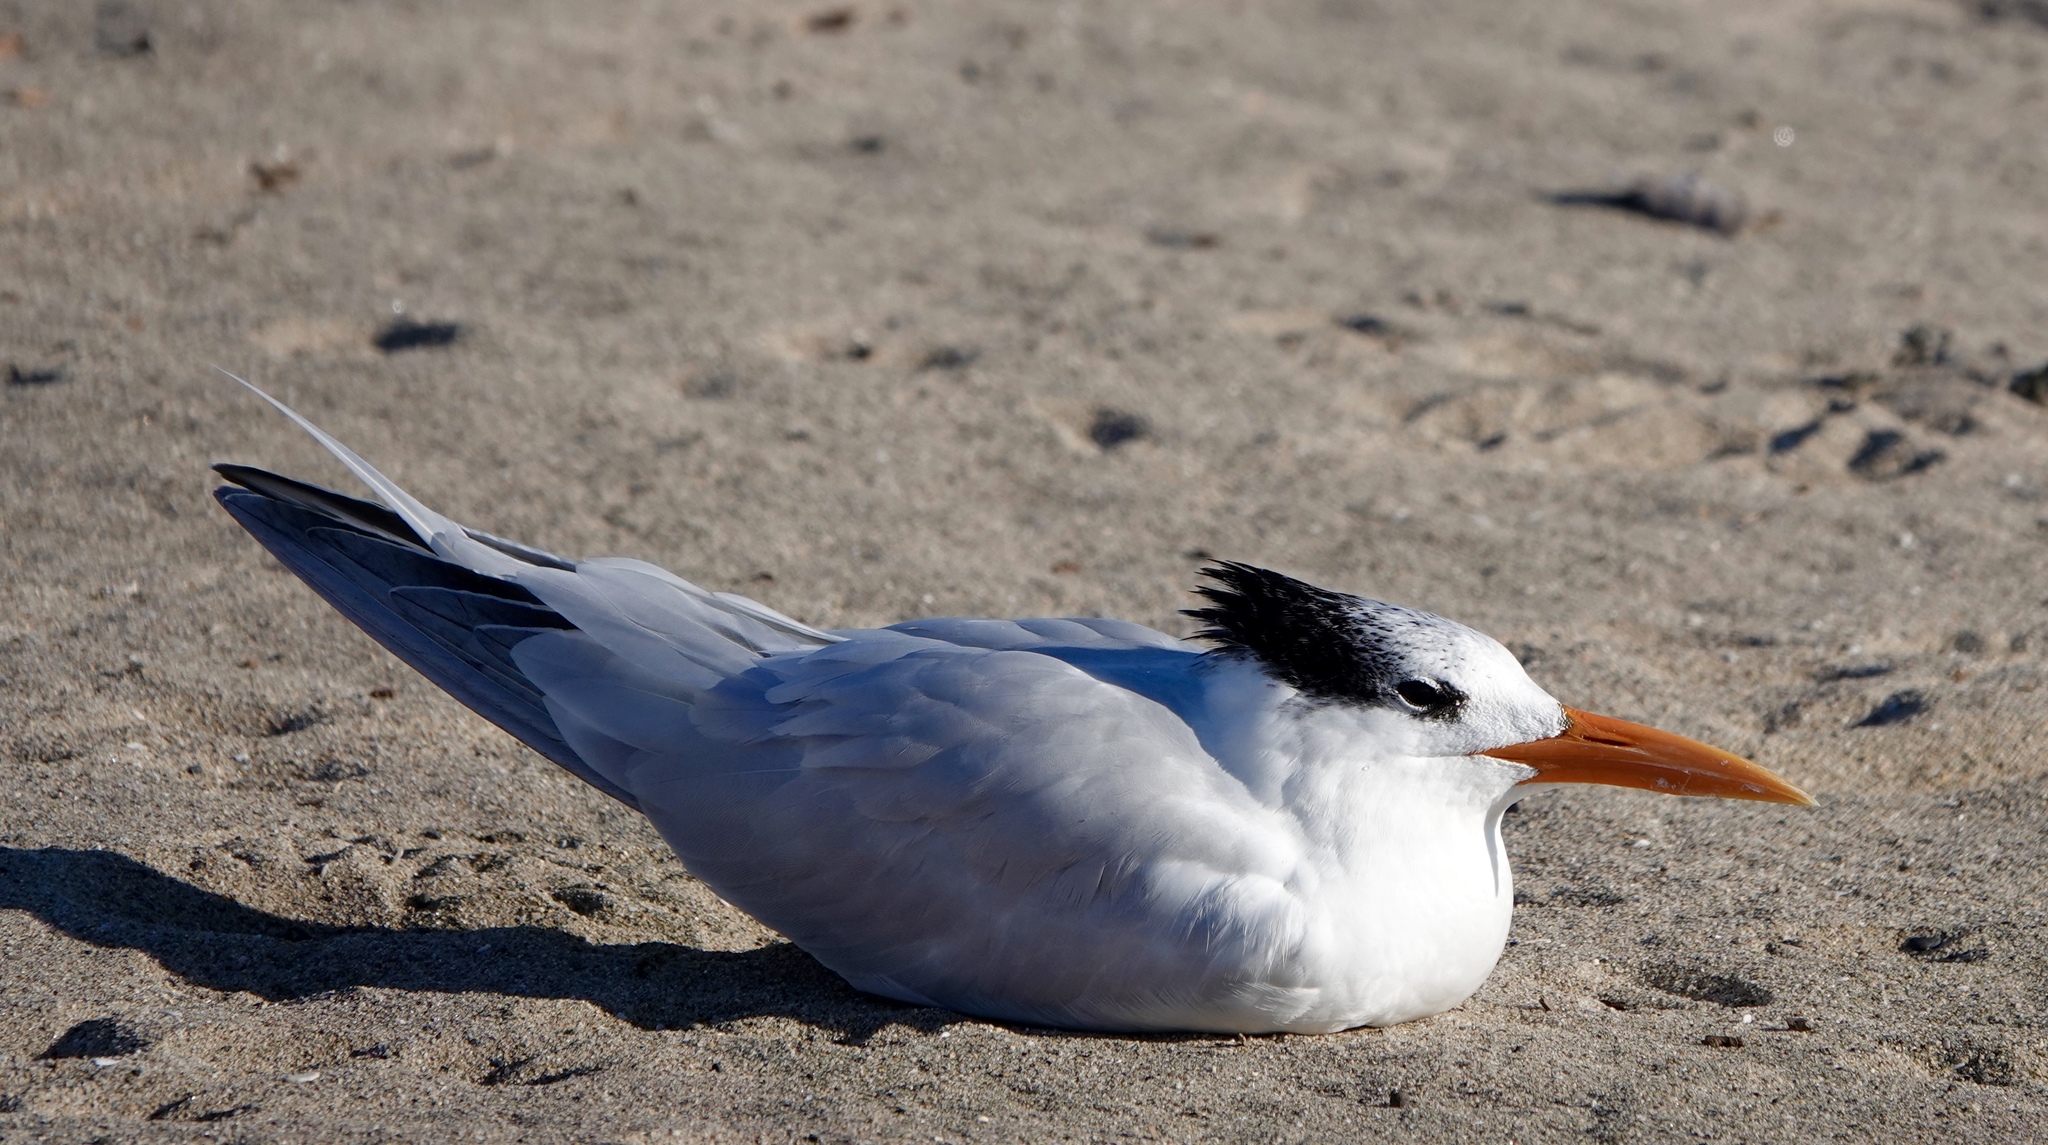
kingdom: Animalia
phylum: Chordata
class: Aves
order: Charadriiformes
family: Laridae
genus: Thalasseus
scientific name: Thalasseus maximus
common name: Royal tern
